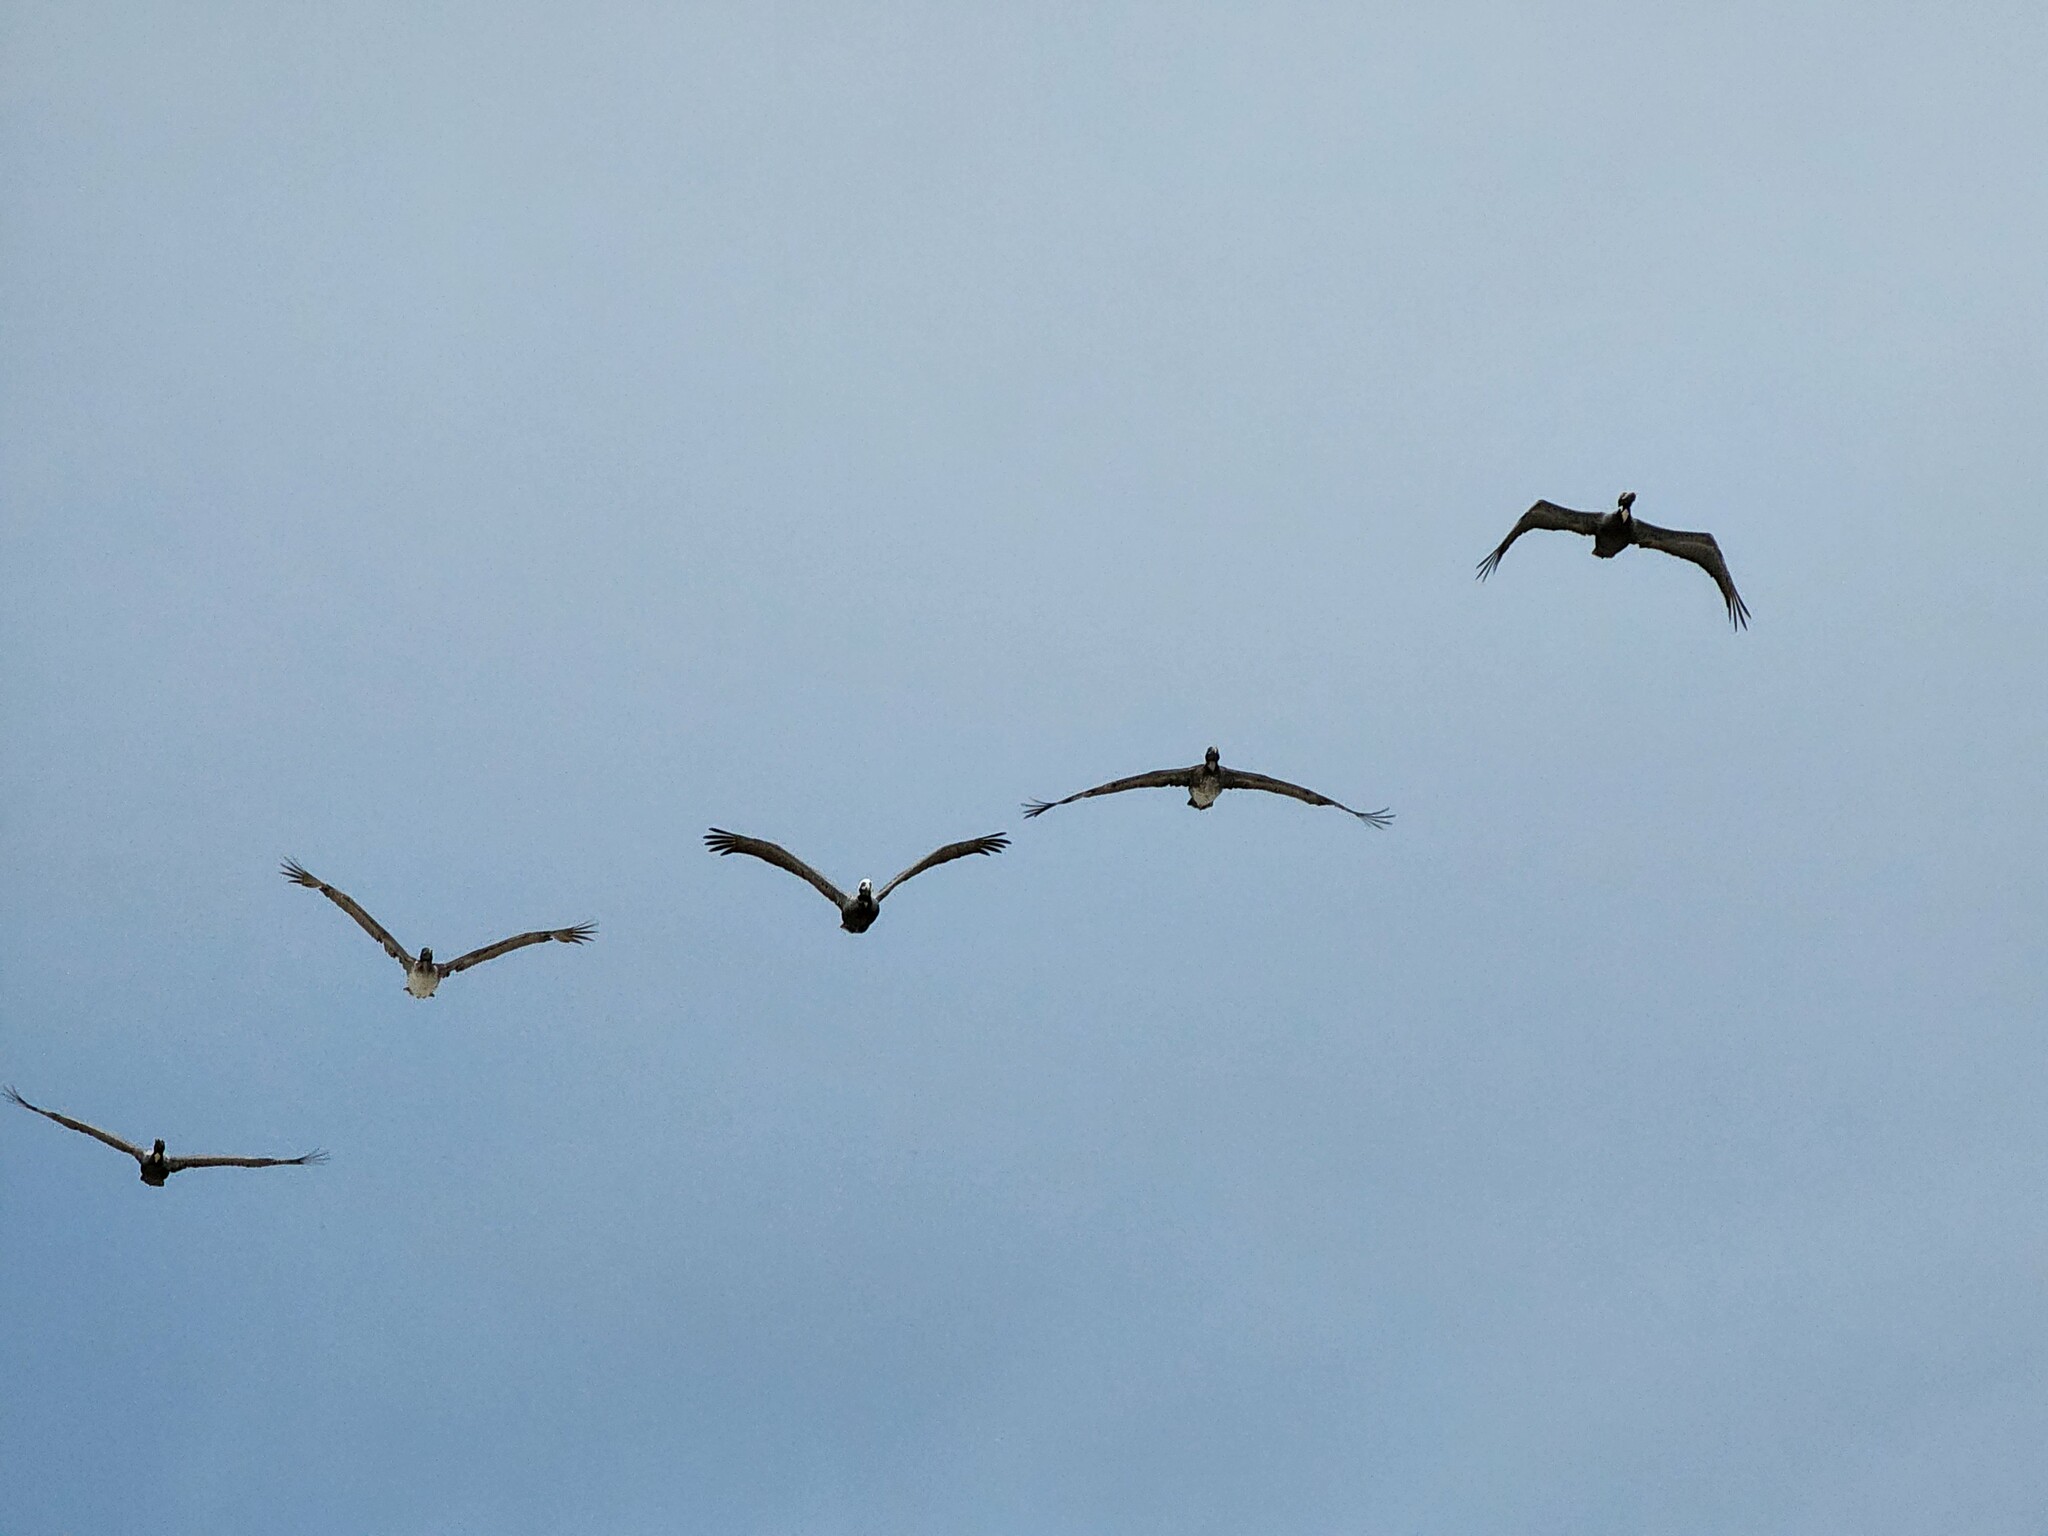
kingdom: Animalia
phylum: Chordata
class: Aves
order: Pelecaniformes
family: Pelecanidae
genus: Pelecanus
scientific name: Pelecanus occidentalis
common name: Brown pelican
